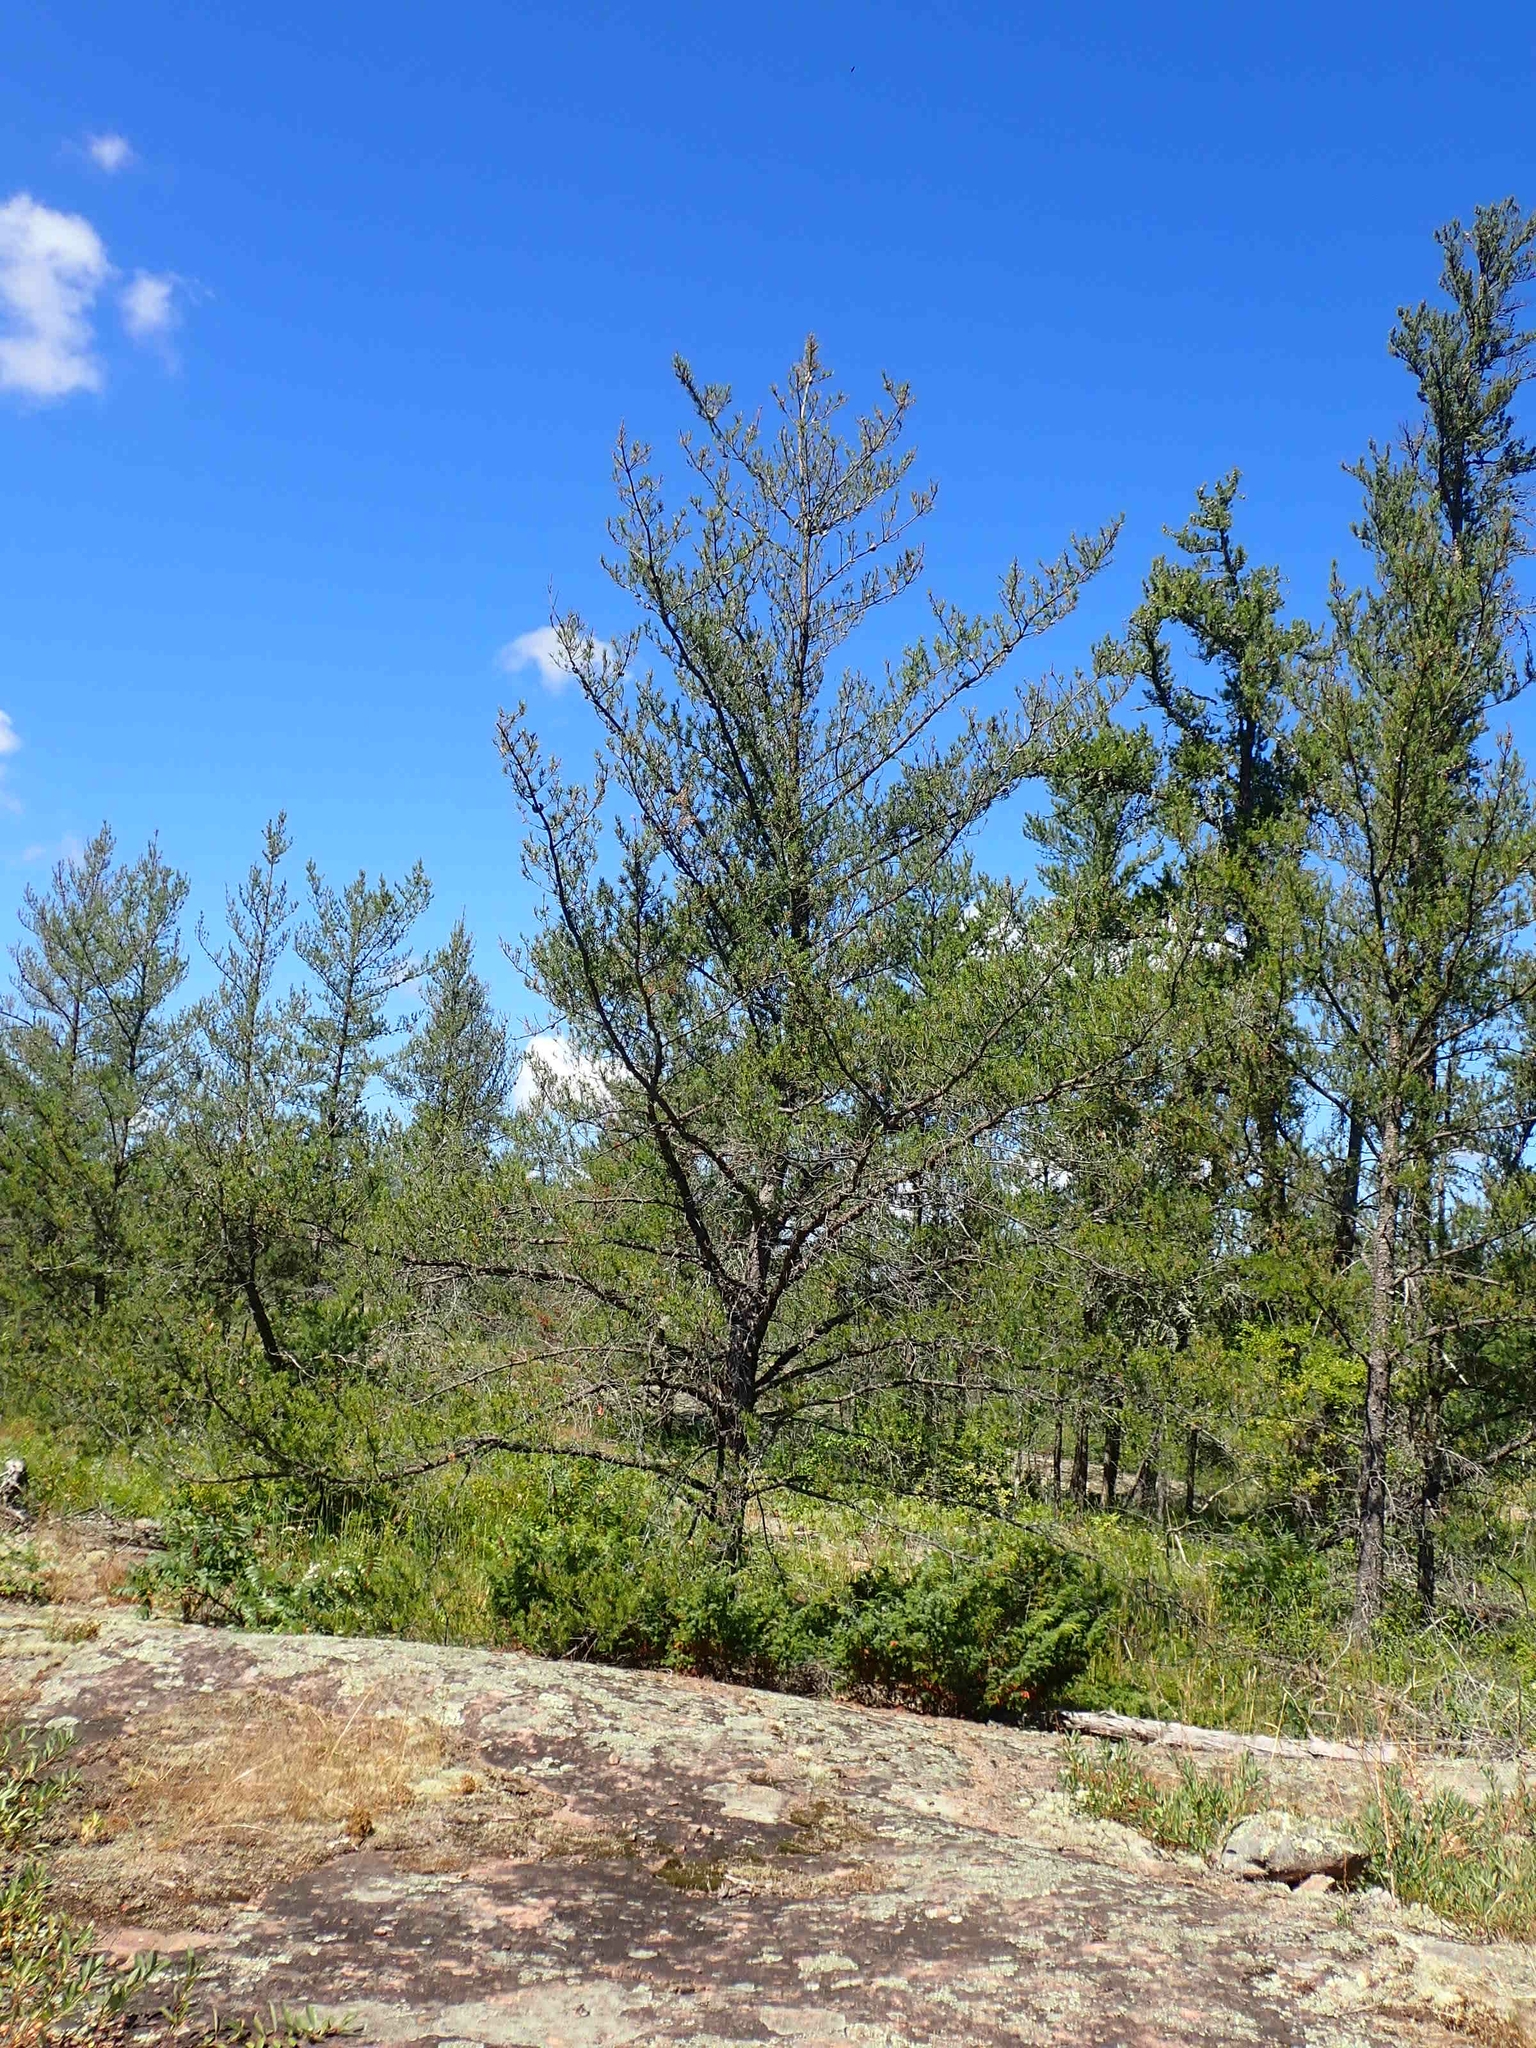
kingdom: Plantae
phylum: Tracheophyta
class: Pinopsida
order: Pinales
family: Pinaceae
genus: Pinus
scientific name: Pinus banksiana
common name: Jack pine
